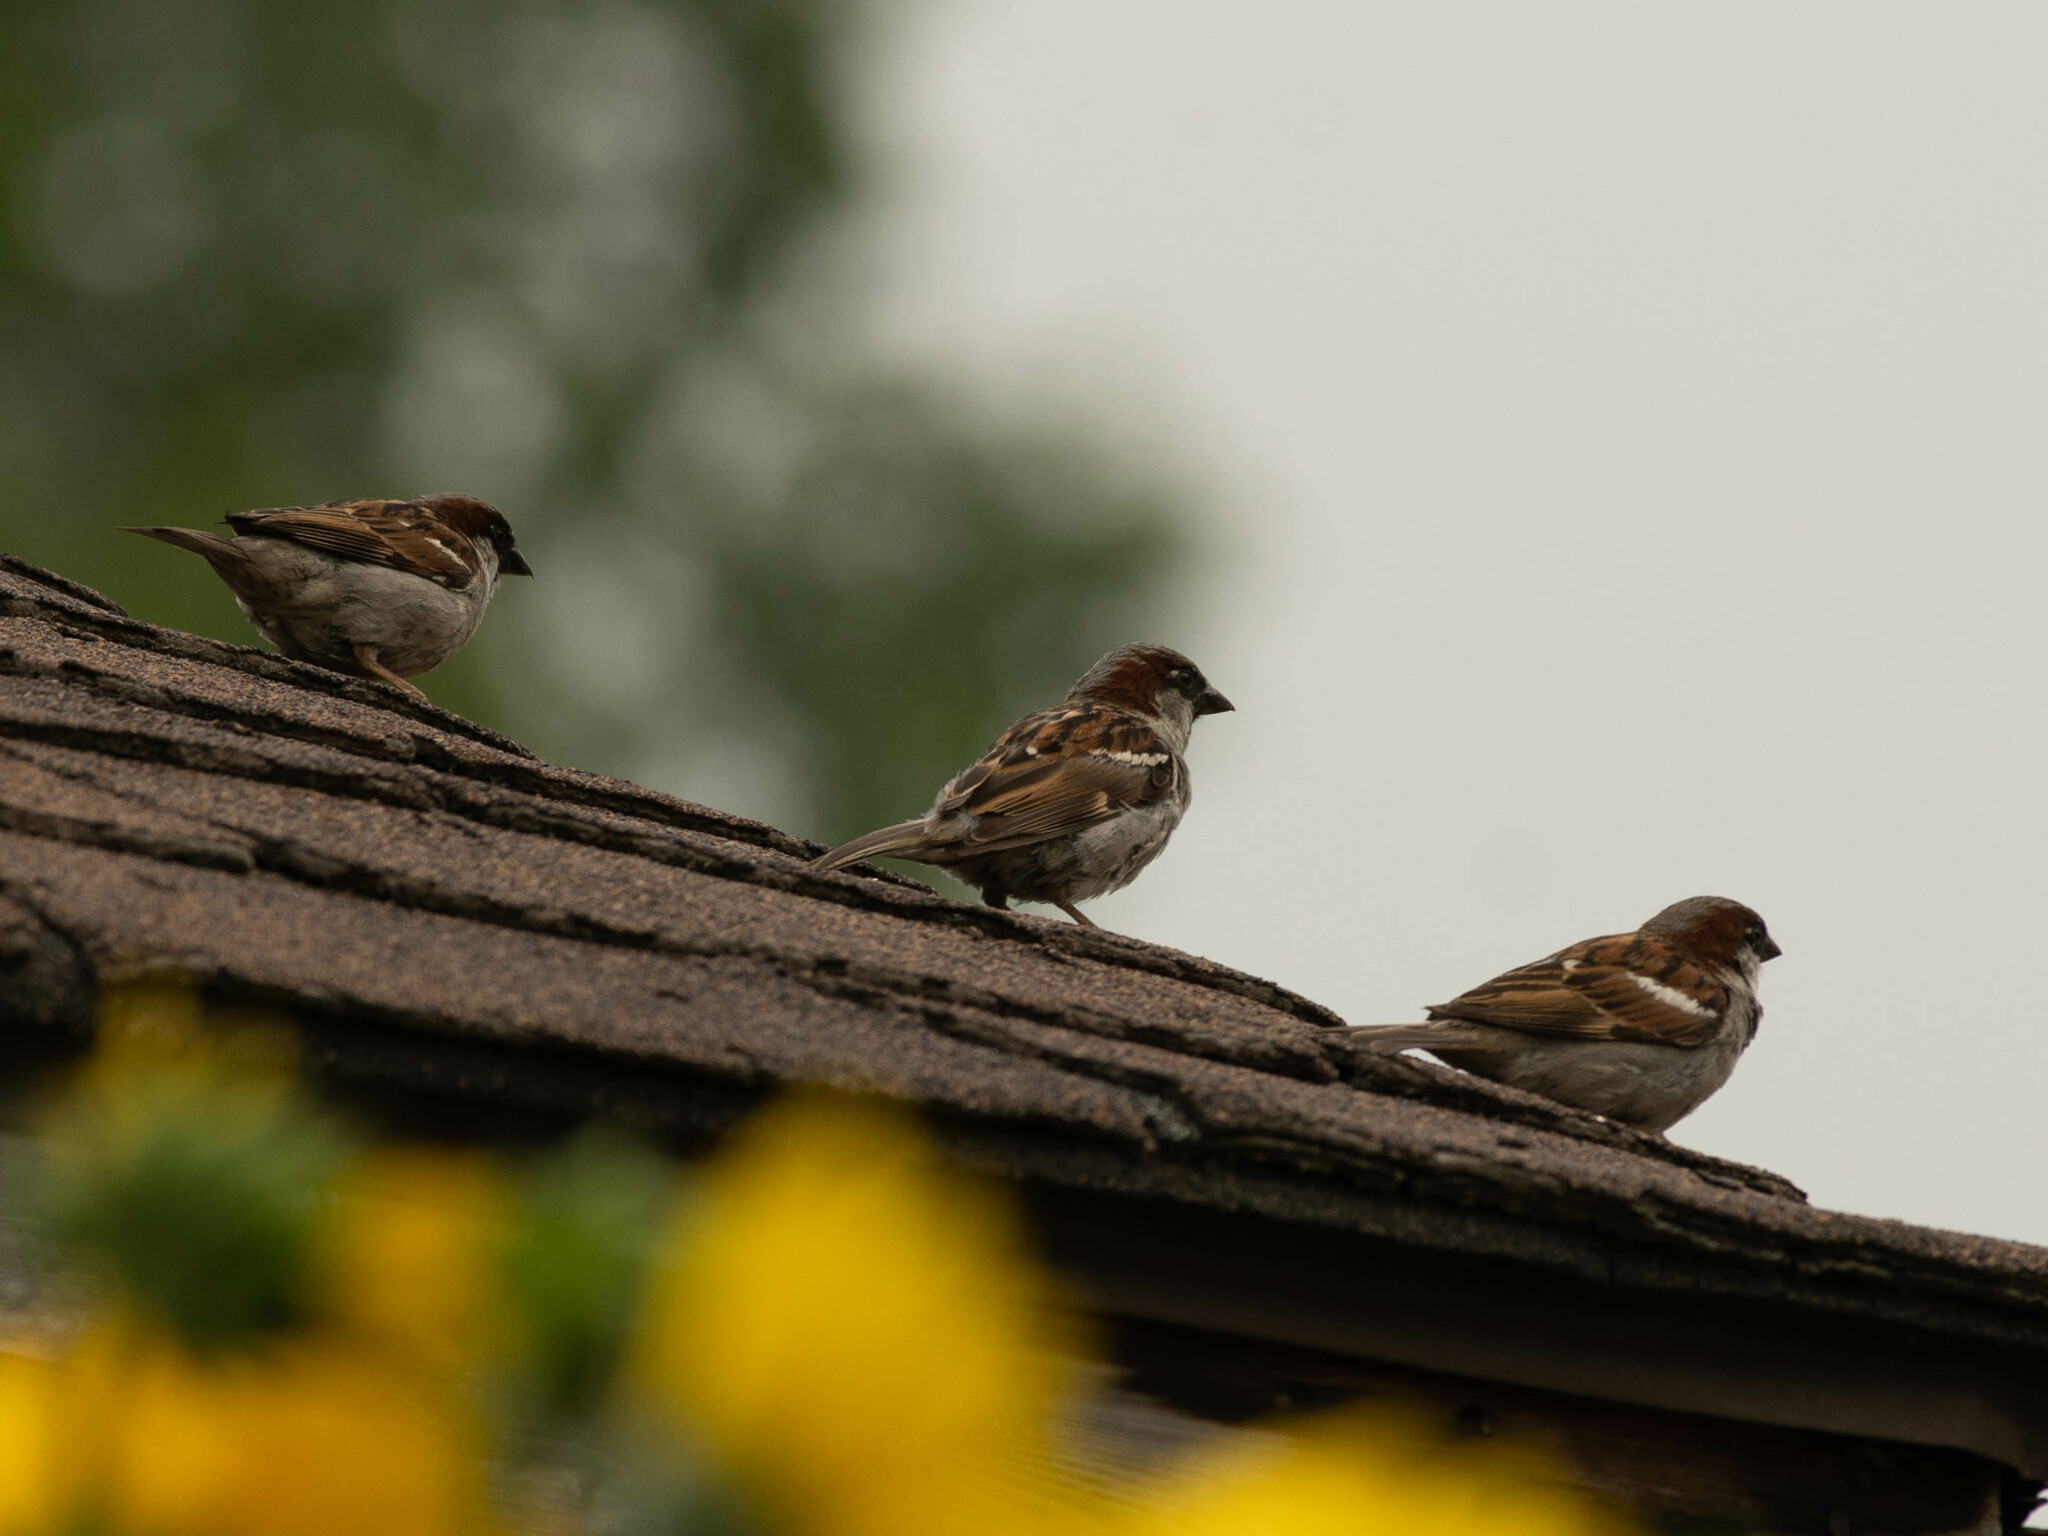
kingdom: Animalia
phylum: Chordata
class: Aves
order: Passeriformes
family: Passeridae
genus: Passer
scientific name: Passer domesticus
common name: House sparrow
